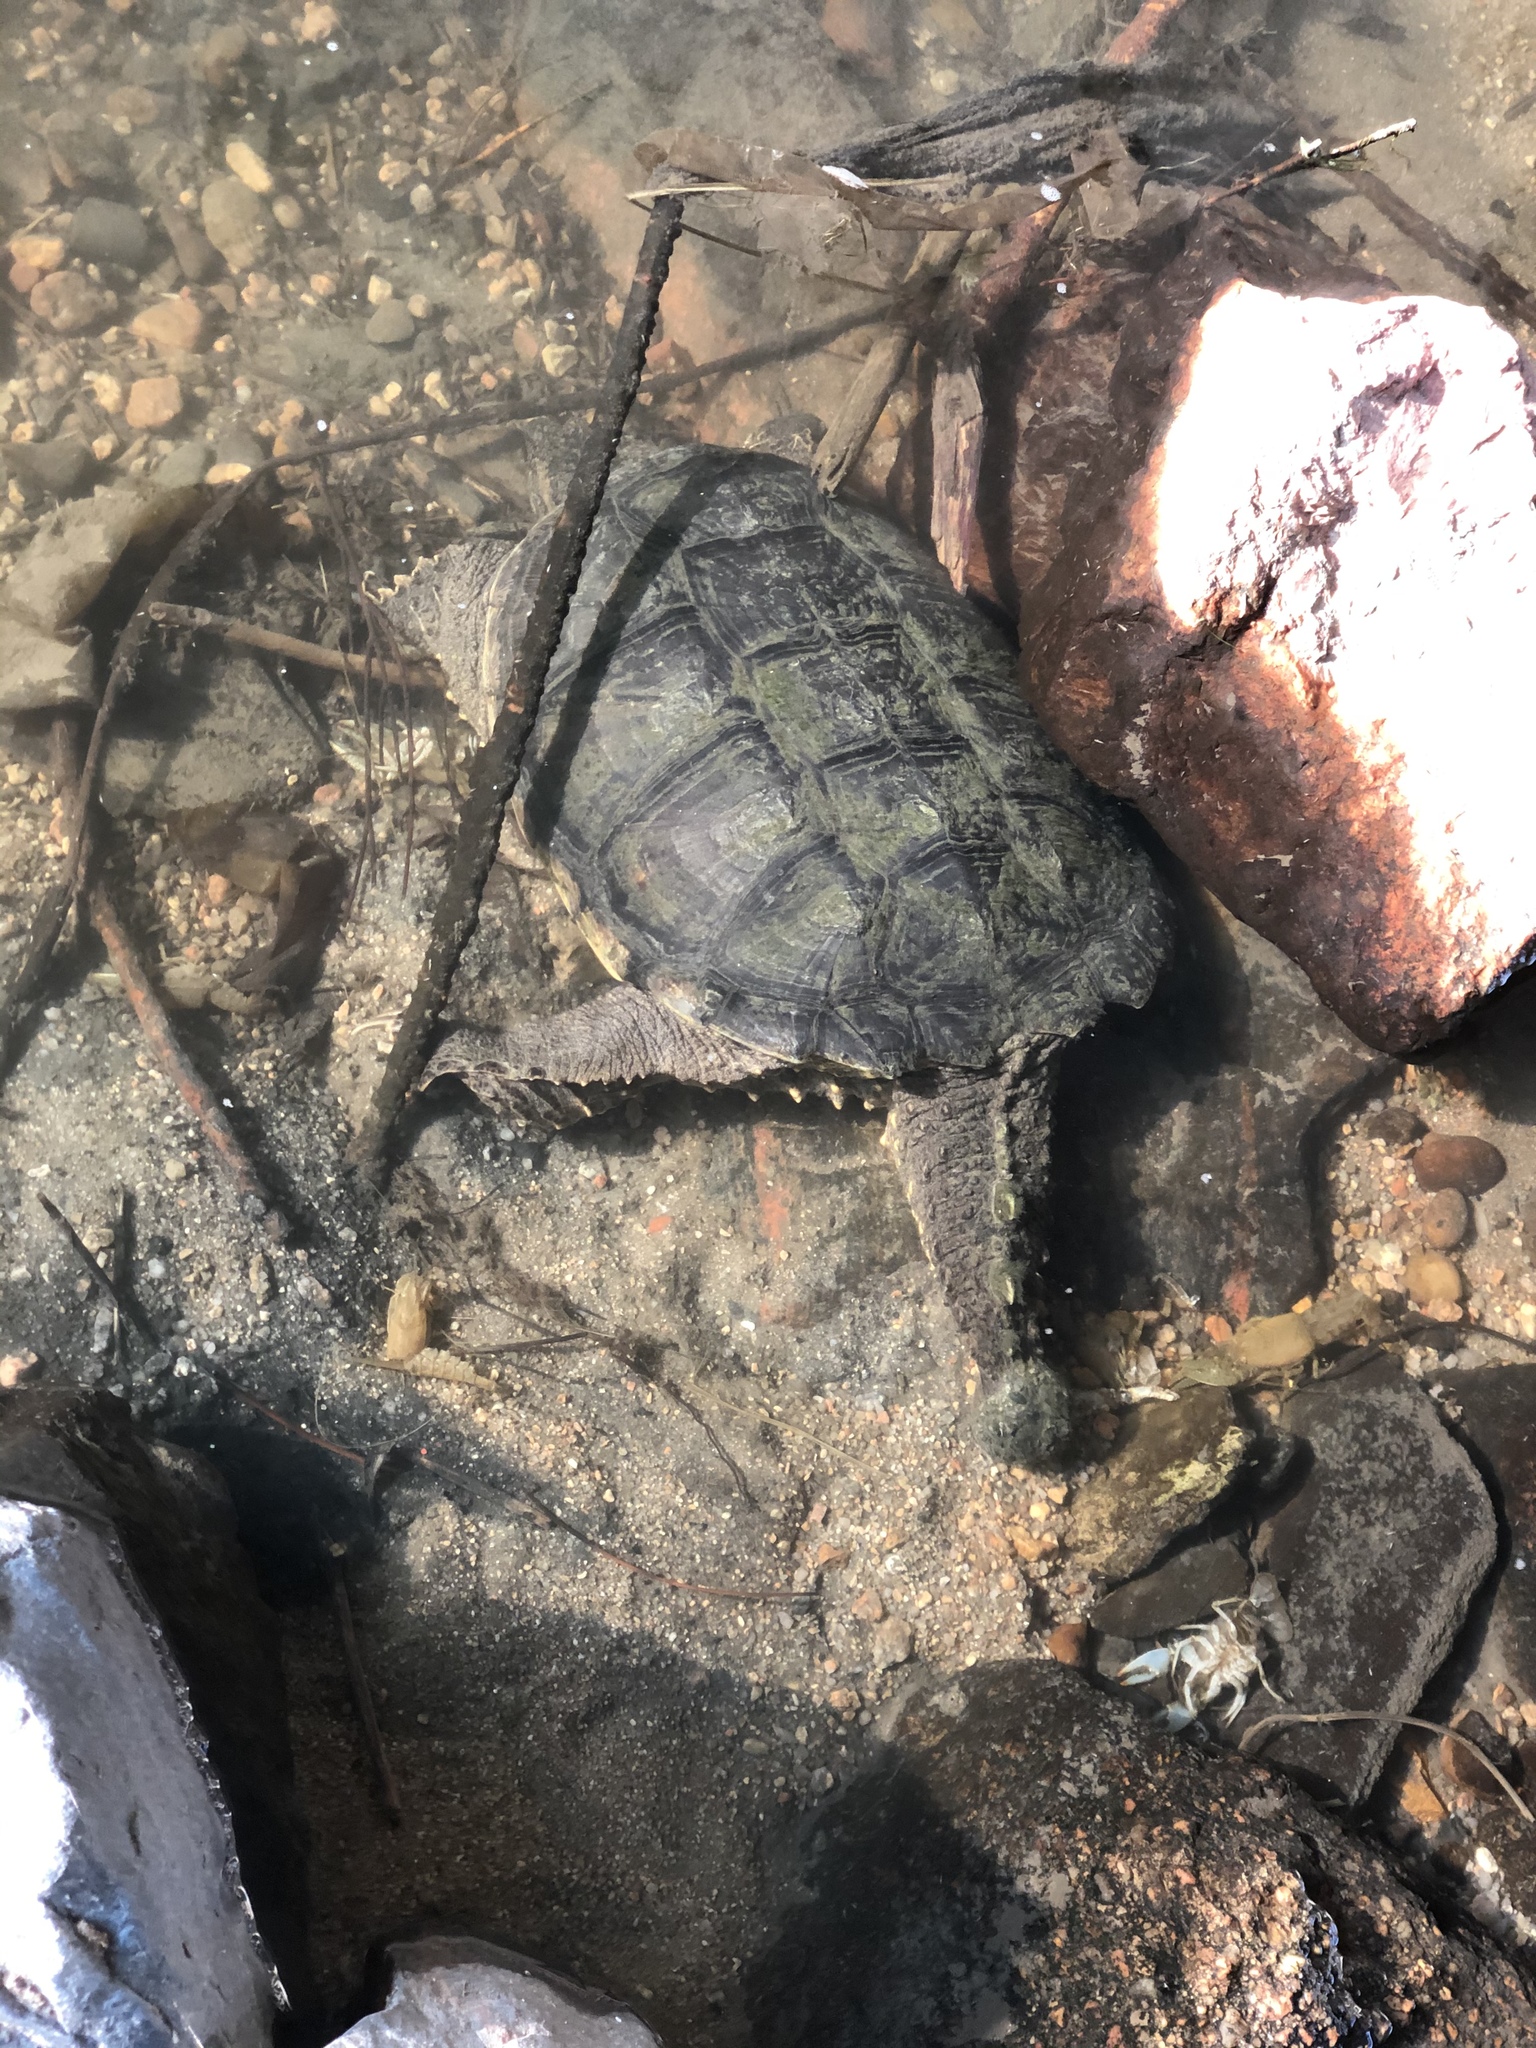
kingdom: Animalia
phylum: Chordata
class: Testudines
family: Chelydridae
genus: Chelydra
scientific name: Chelydra serpentina
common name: Common snapping turtle
